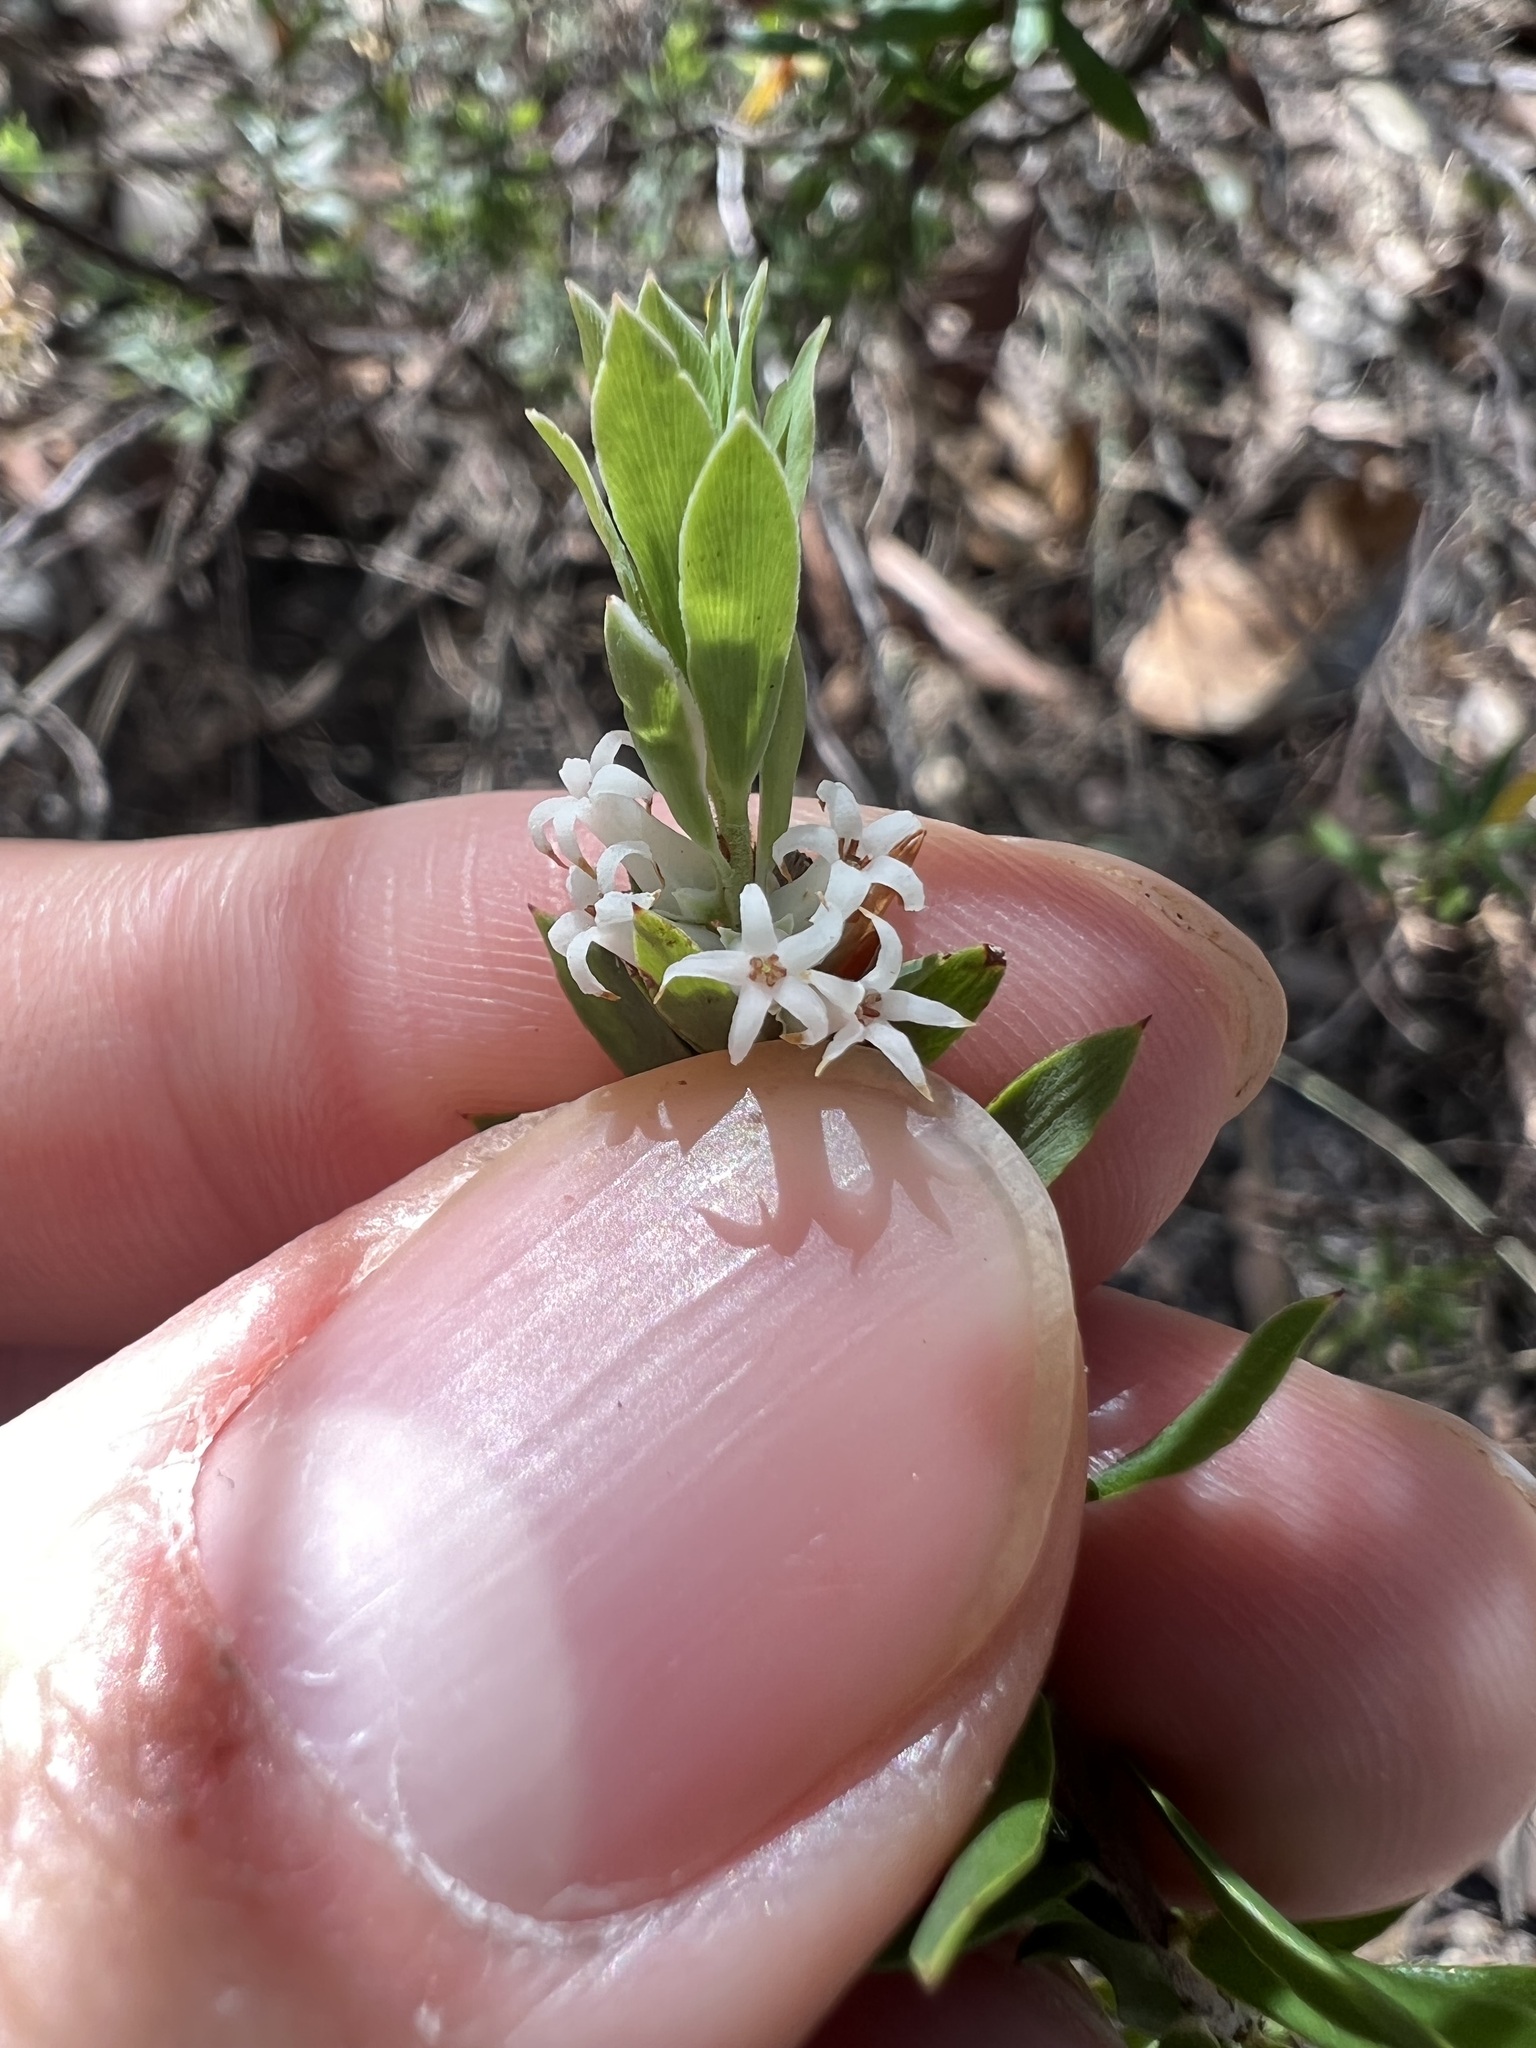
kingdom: Plantae
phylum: Tracheophyta
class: Magnoliopsida
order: Ericales
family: Ericaceae
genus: Brachyloma
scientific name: Brachyloma daphnoides
